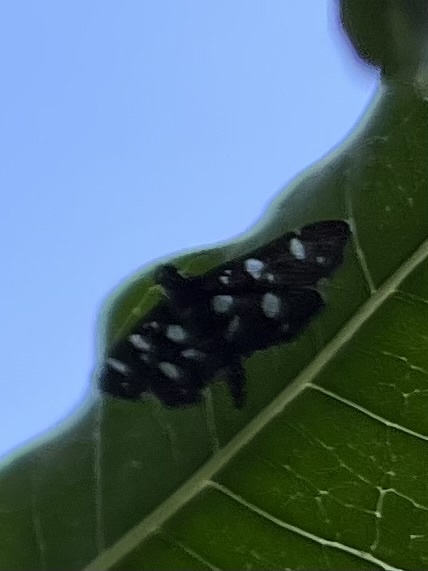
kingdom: Animalia
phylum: Arthropoda
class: Insecta
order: Lepidoptera
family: Crambidae
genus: Bocchoris
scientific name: Bocchoris inspersalis
